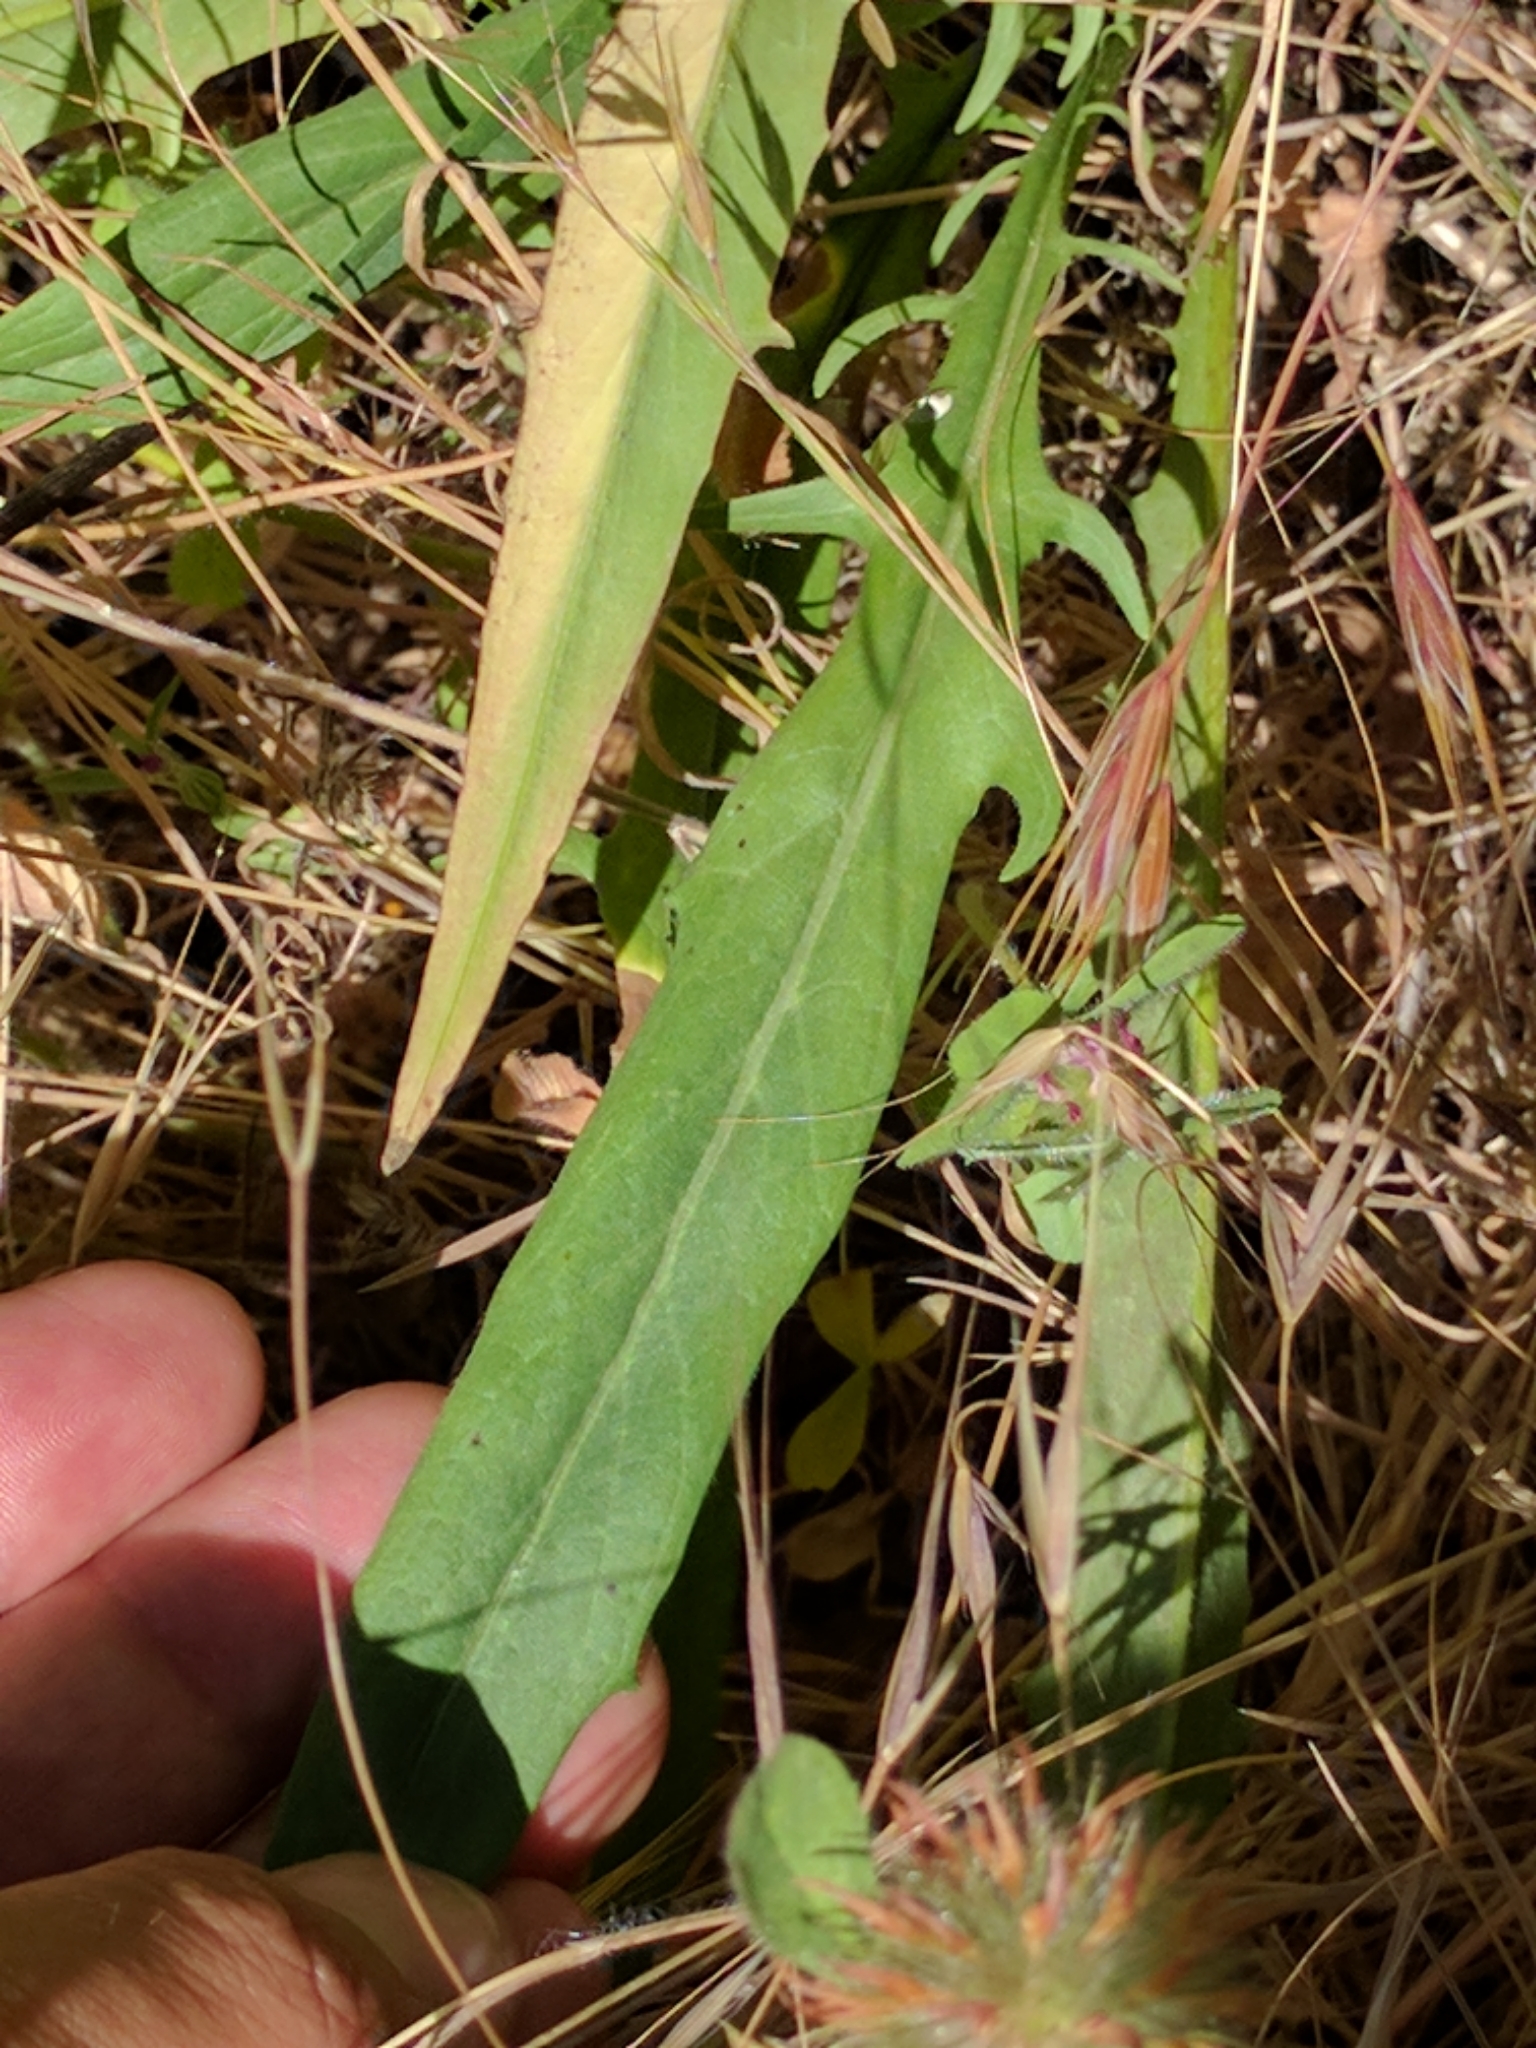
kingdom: Plantae
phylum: Tracheophyta
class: Magnoliopsida
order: Asterales
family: Asteraceae
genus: Agoseris
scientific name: Agoseris grandiflora
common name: Grassland agoseris
